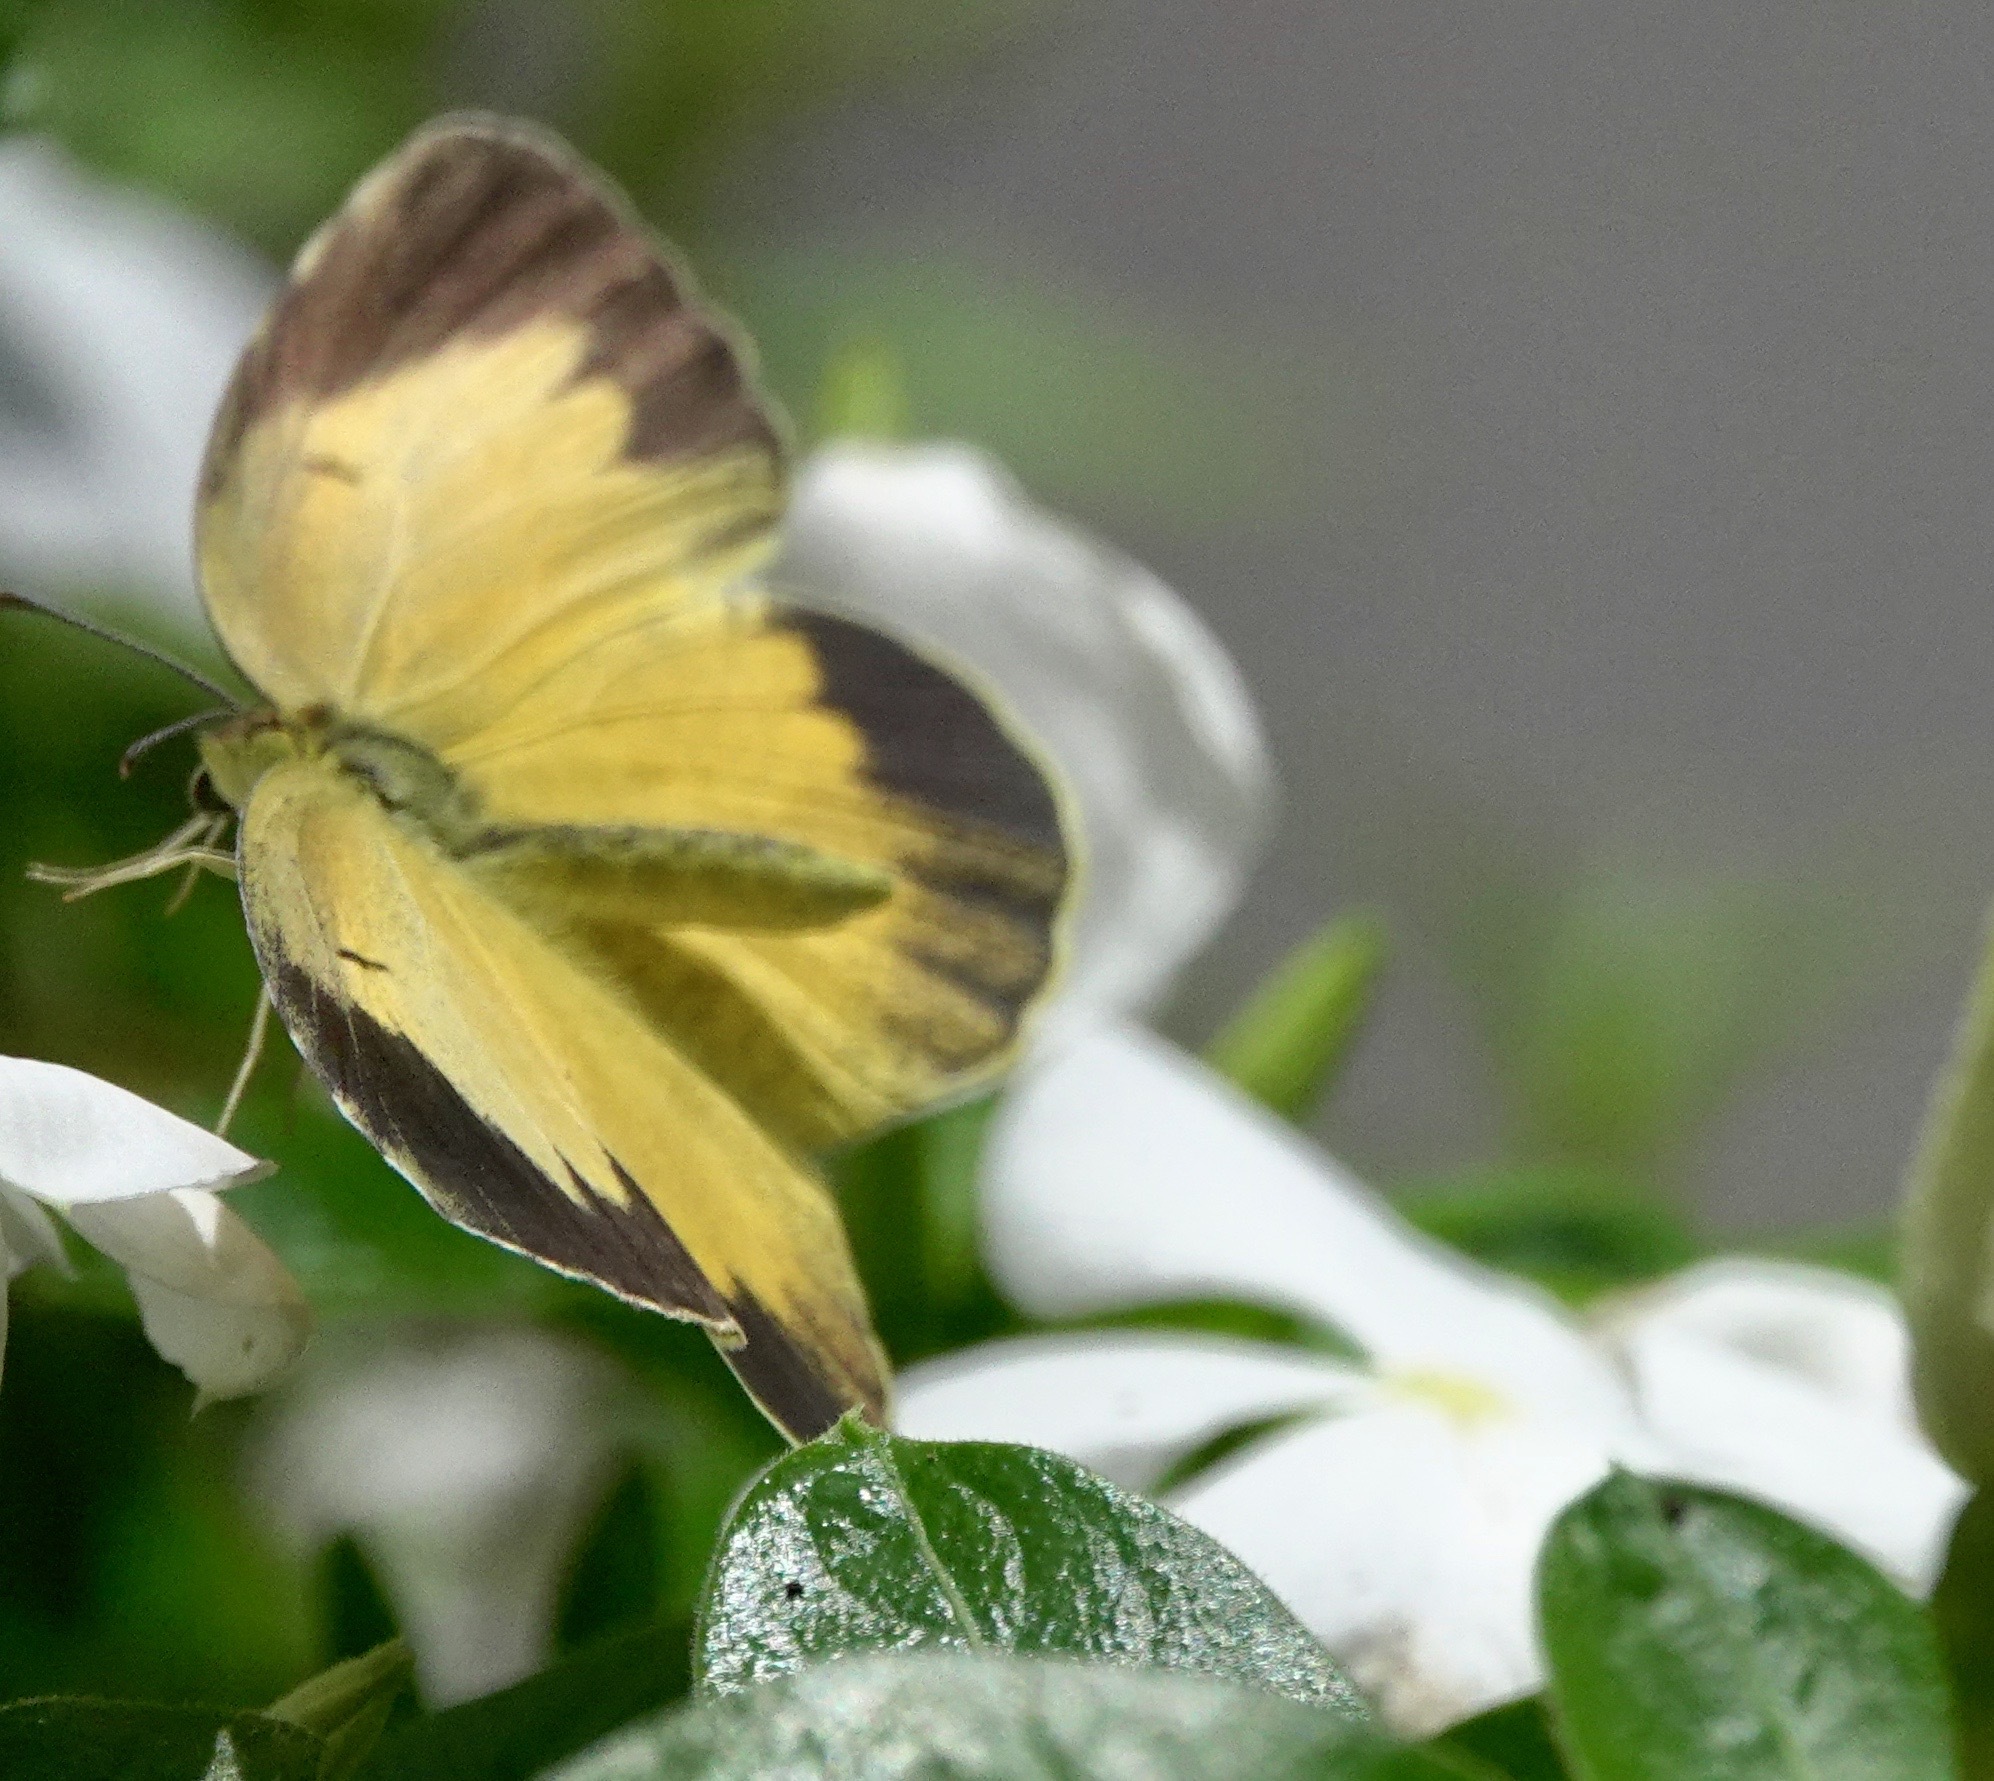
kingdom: Animalia
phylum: Arthropoda
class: Insecta
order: Lepidoptera
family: Pieridae
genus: Abaeis
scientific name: Abaeis nicippe
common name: Sleepy orange
